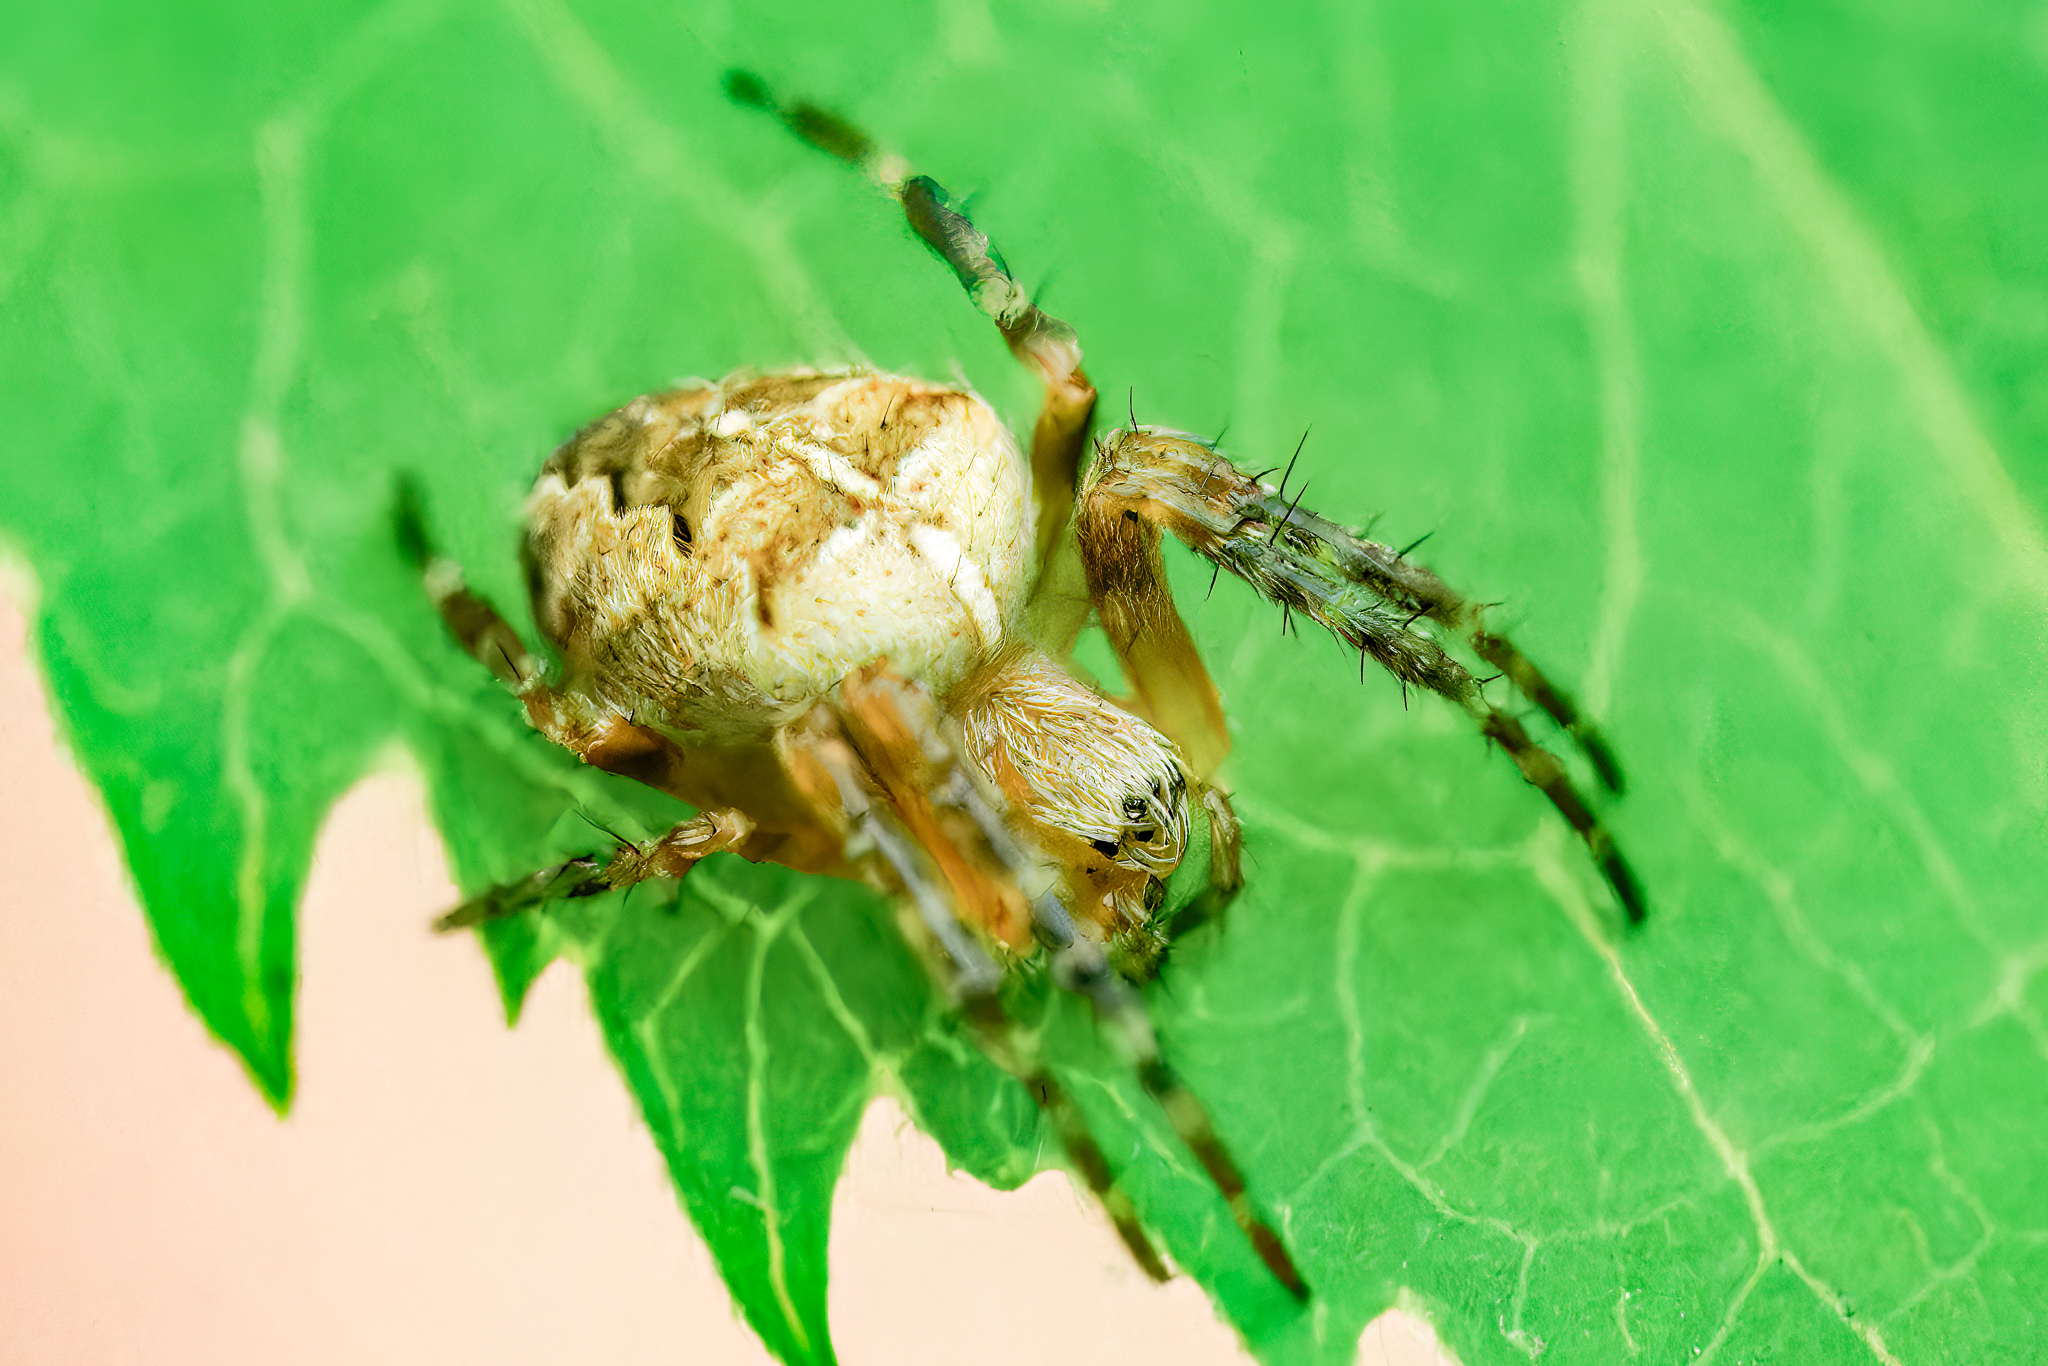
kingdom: Animalia
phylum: Arthropoda
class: Arachnida
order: Araneae
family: Araneidae
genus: Araneus
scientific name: Araneus diadematus
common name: Cross orbweaver
